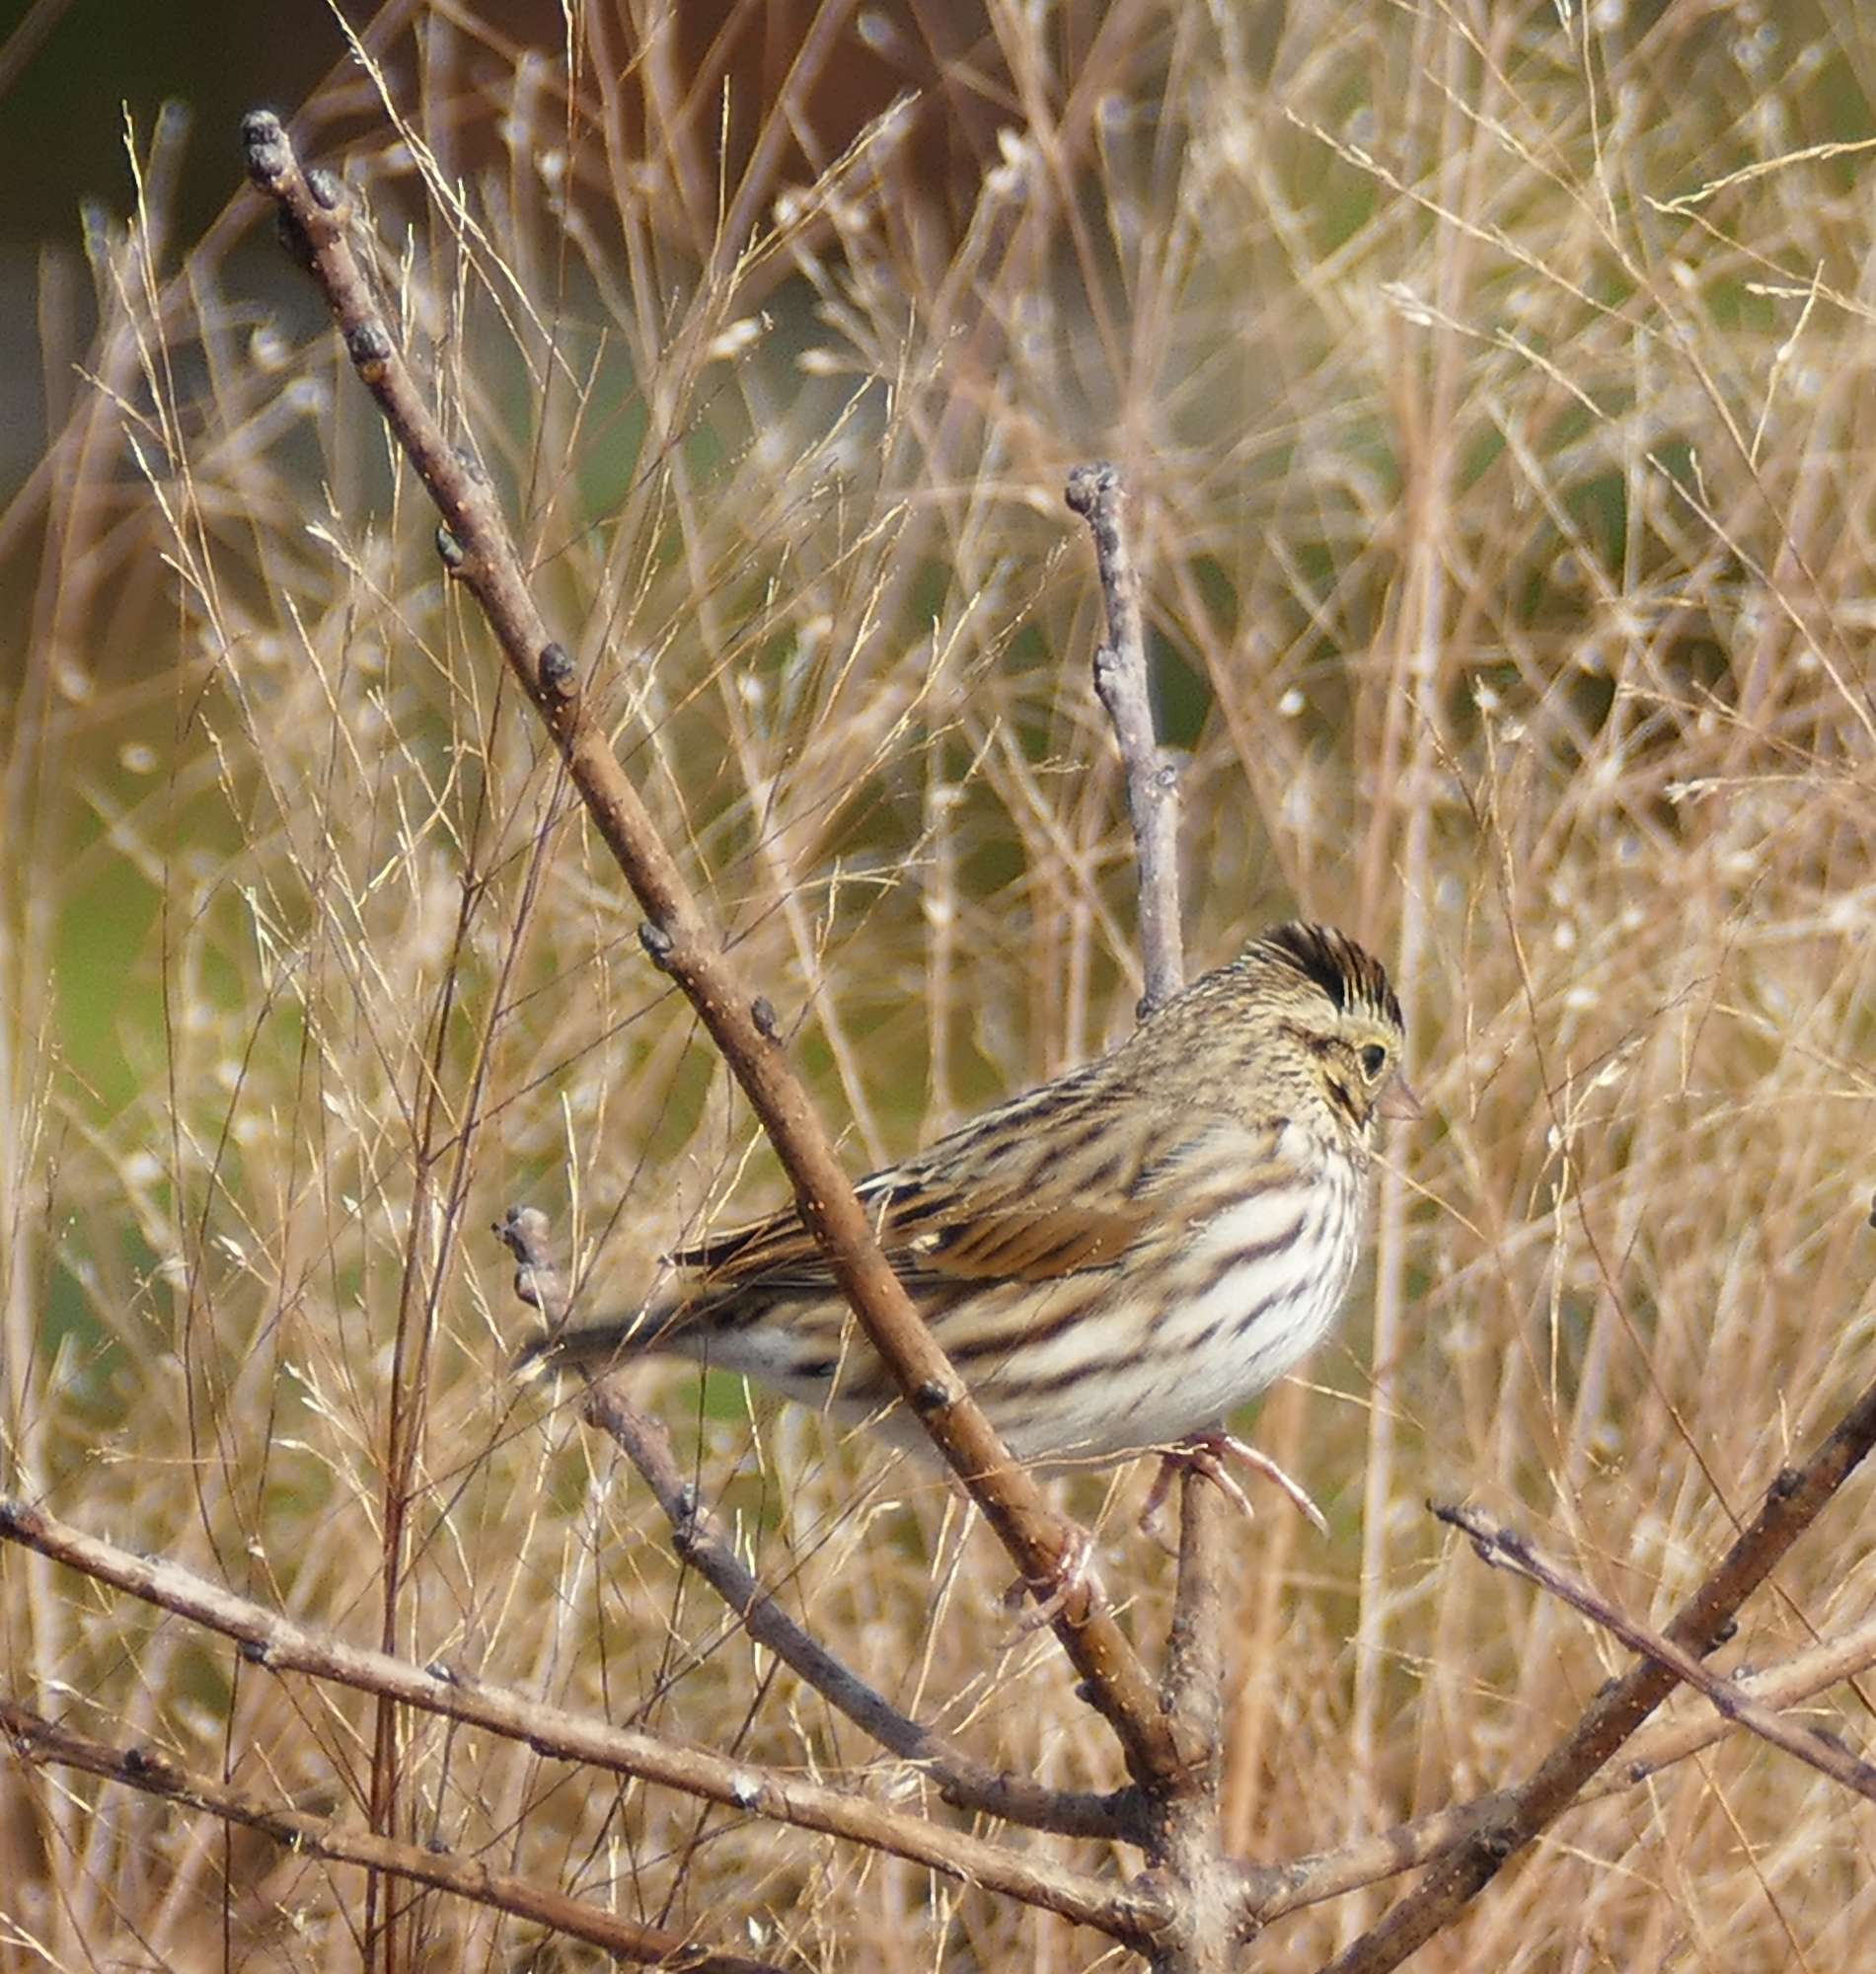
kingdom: Animalia
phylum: Chordata
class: Aves
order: Passeriformes
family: Passerellidae
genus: Passerculus
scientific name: Passerculus sandwichensis
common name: Savannah sparrow
